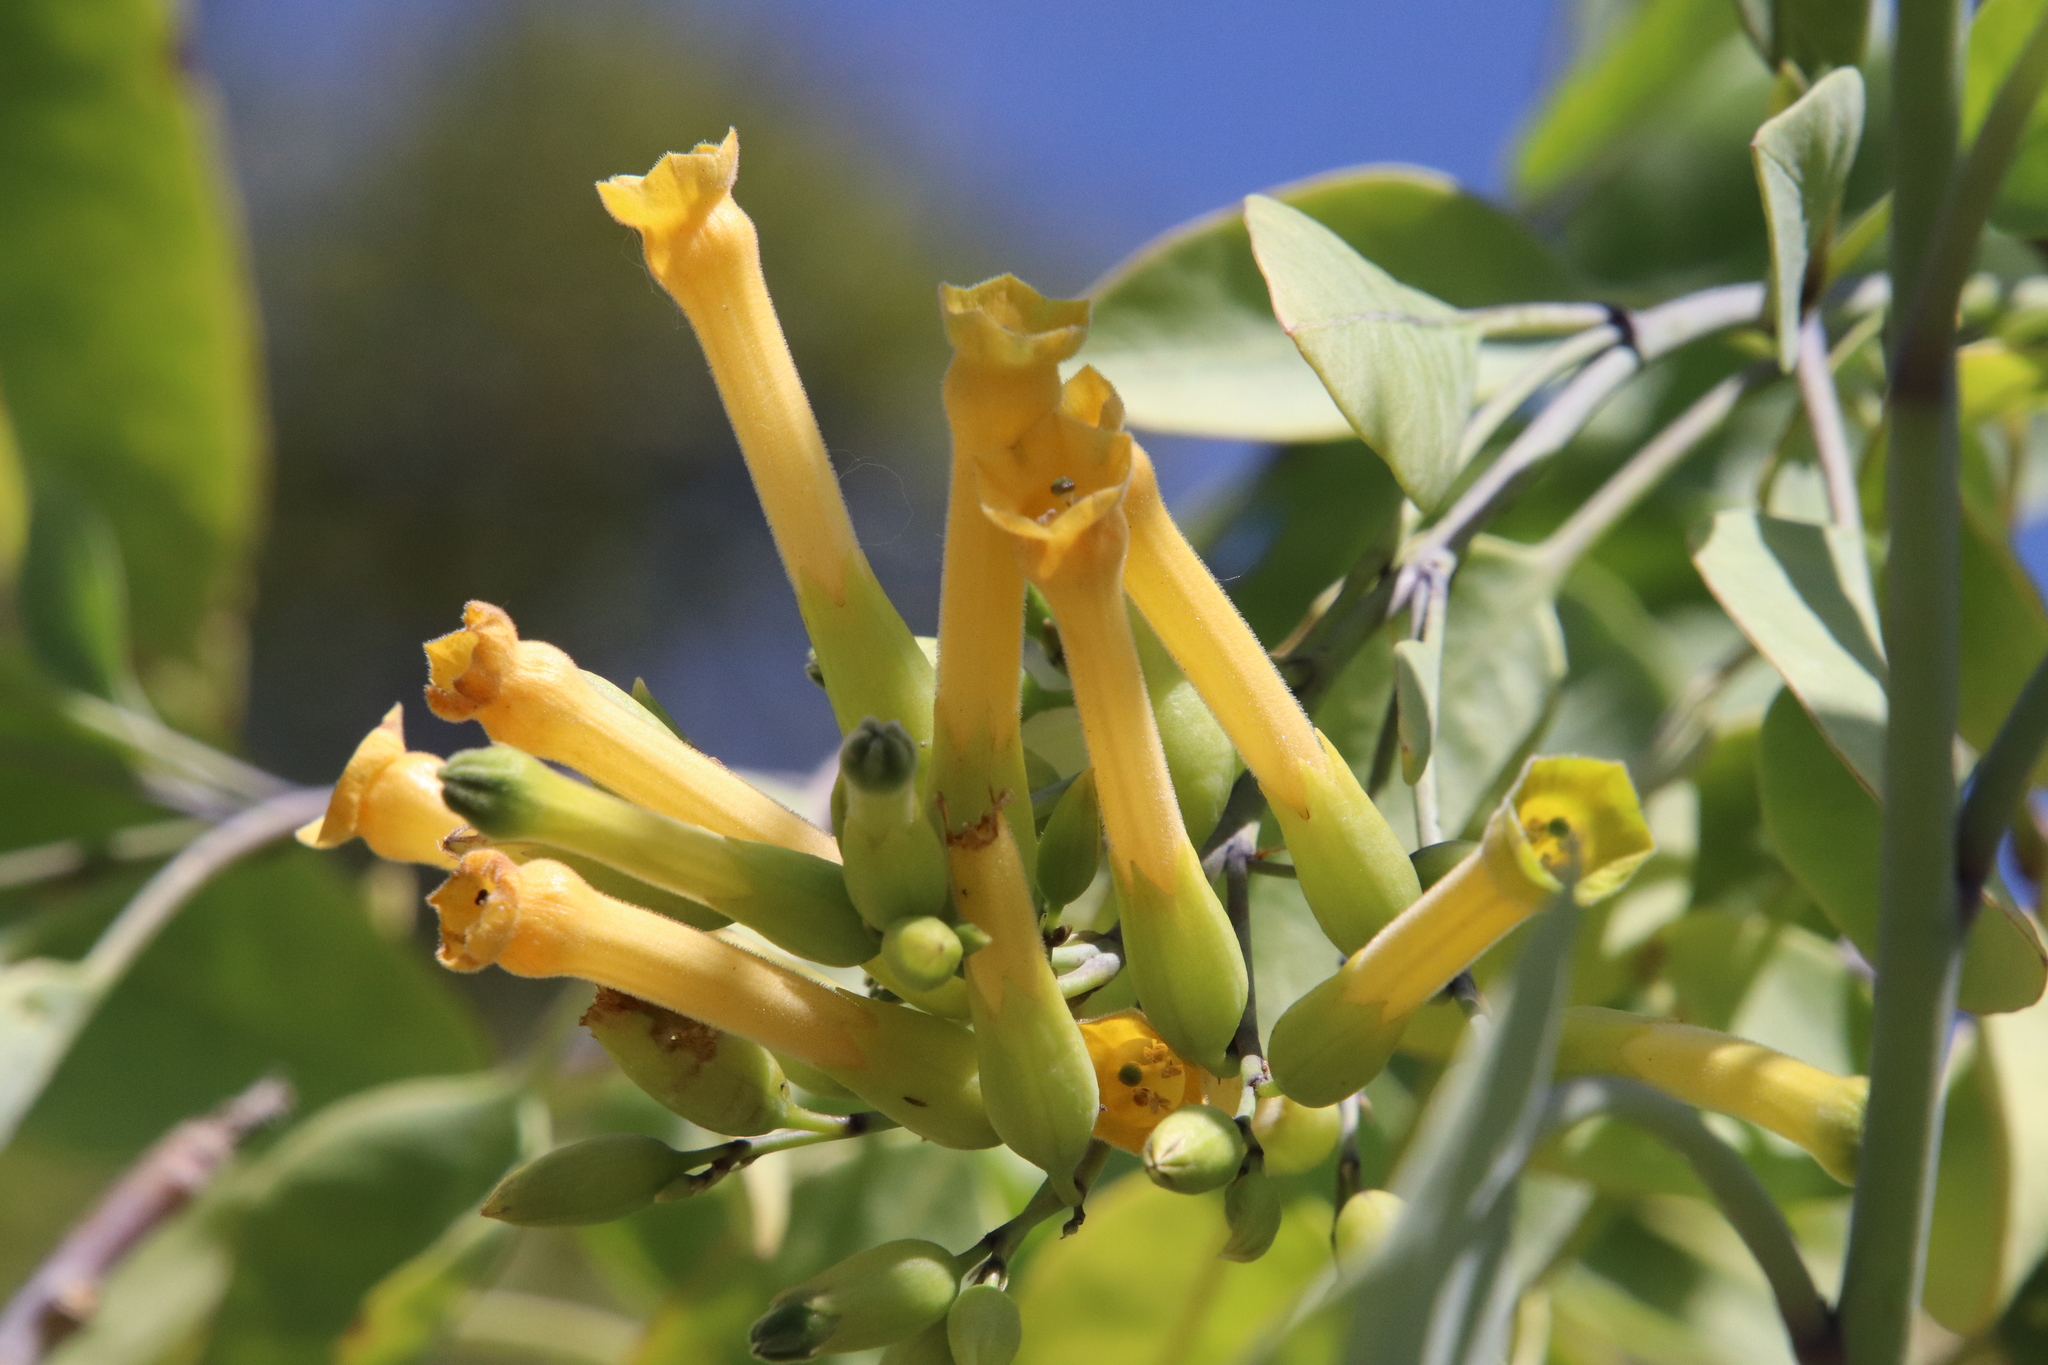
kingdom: Plantae
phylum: Tracheophyta
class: Magnoliopsida
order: Solanales
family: Solanaceae
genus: Nicotiana
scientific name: Nicotiana glauca
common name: Tree tobacco
